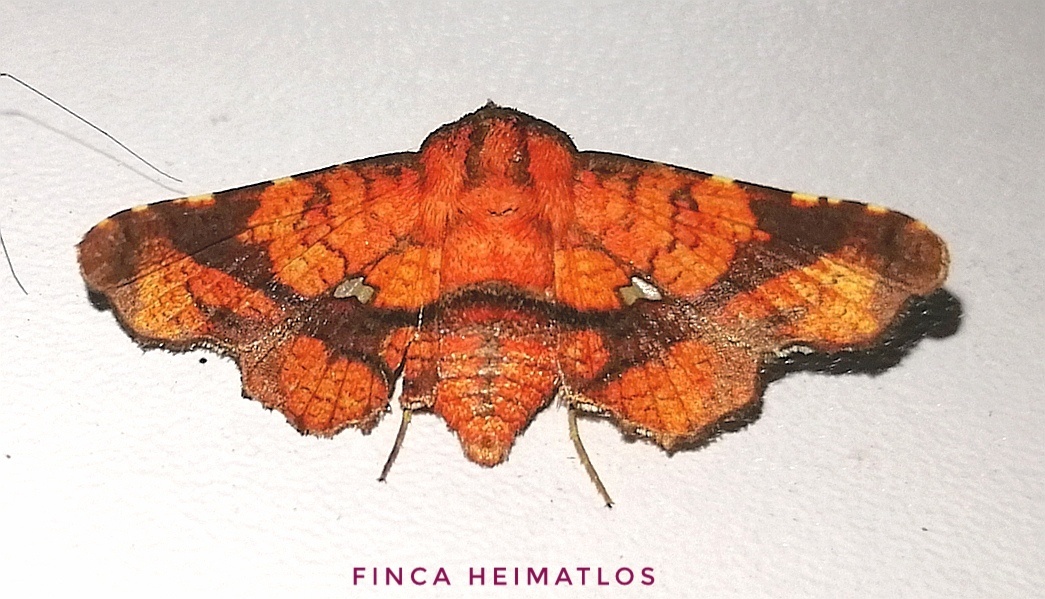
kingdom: Animalia
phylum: Arthropoda
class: Insecta
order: Lepidoptera
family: Thyrididae
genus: Dysodia
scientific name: Dysodia confusata
